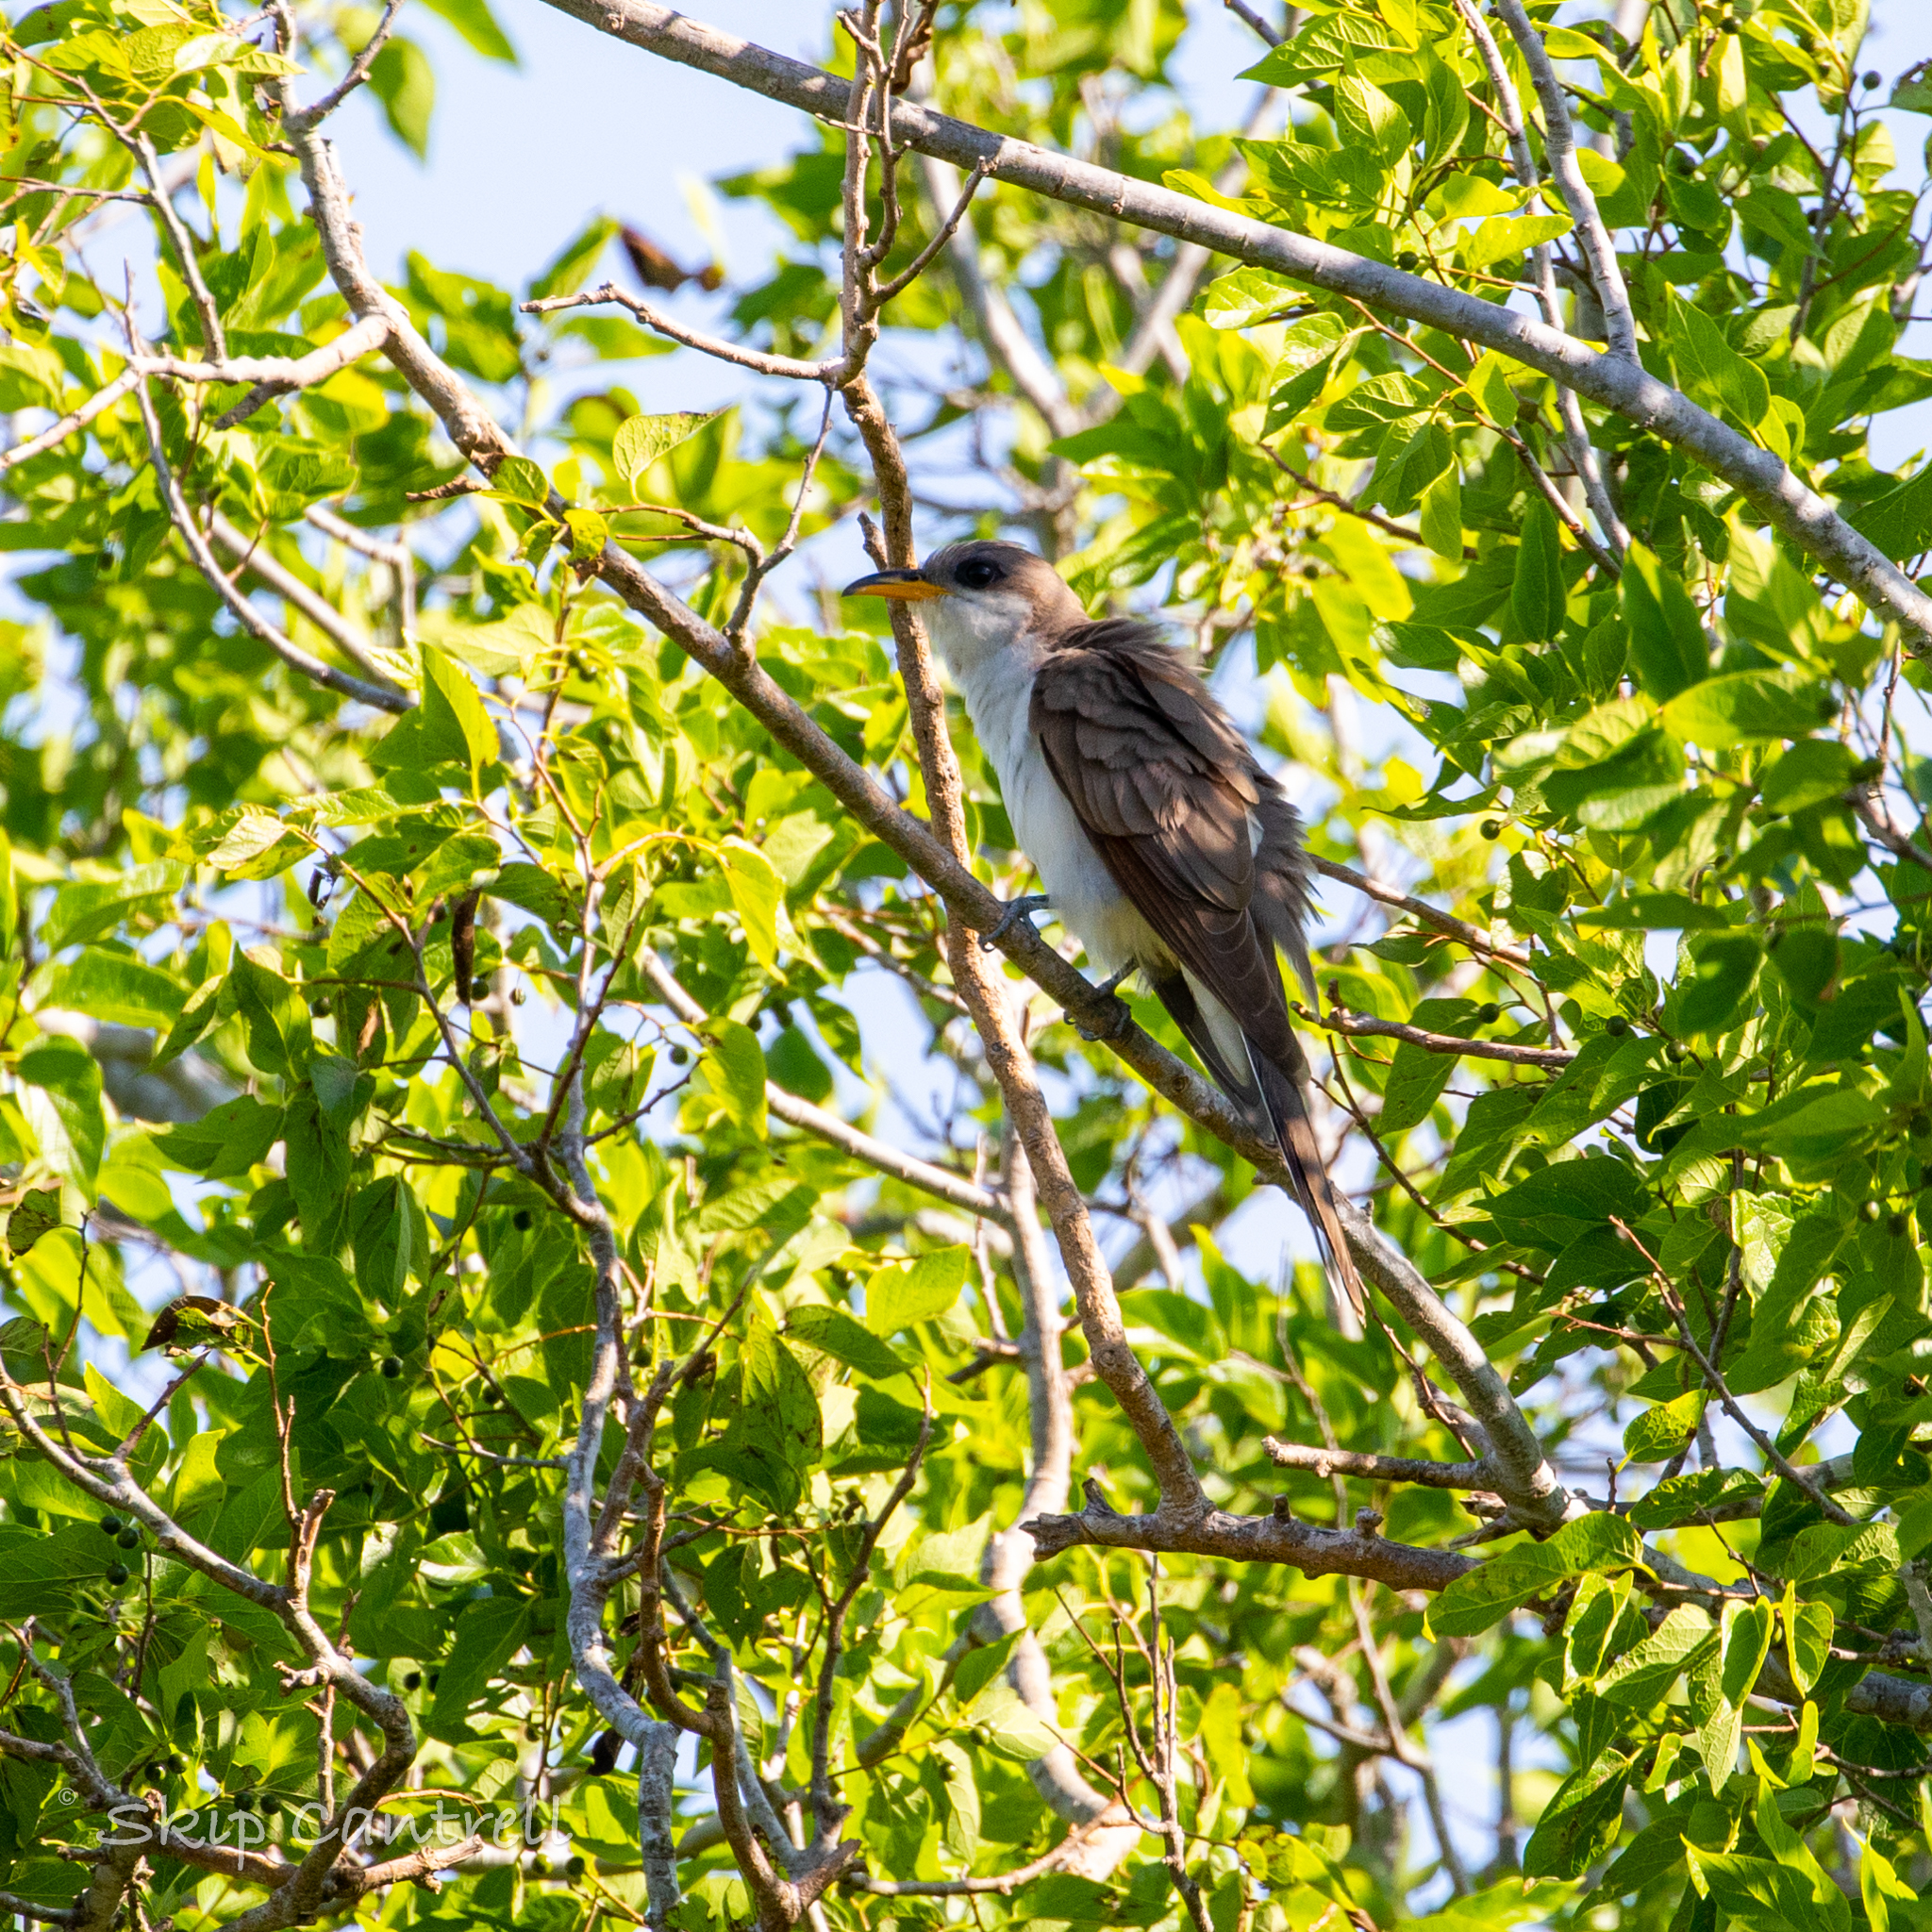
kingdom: Animalia
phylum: Chordata
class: Aves
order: Cuculiformes
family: Cuculidae
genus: Coccyzus
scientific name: Coccyzus americanus
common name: Yellow-billed cuckoo
